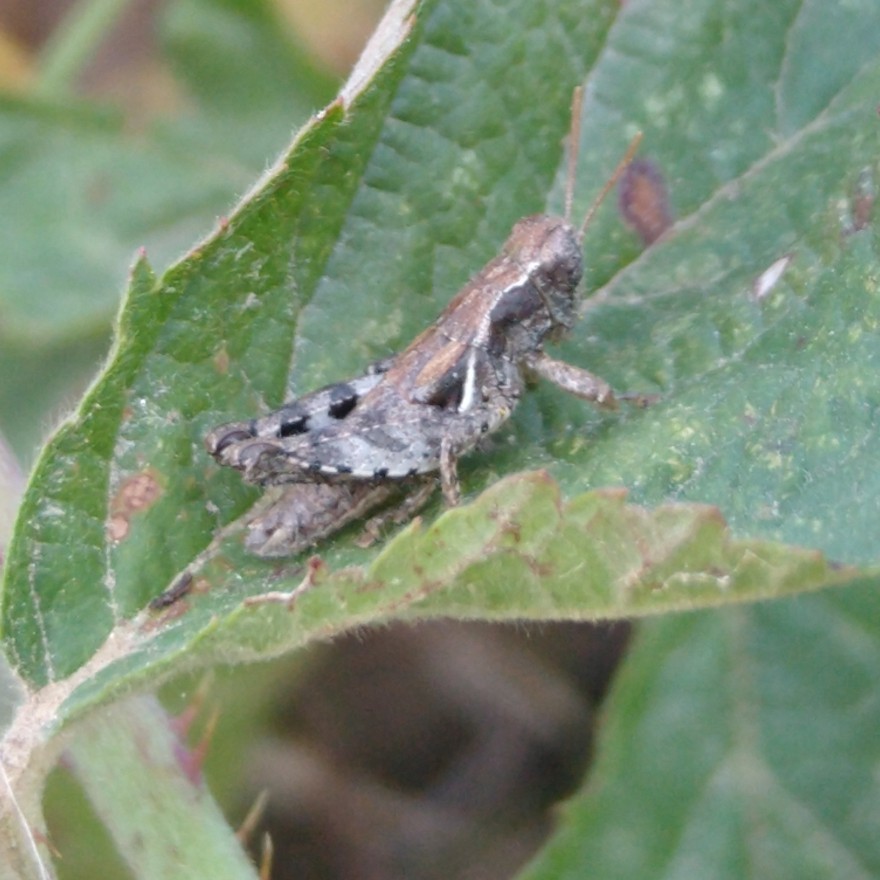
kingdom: Animalia
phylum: Arthropoda
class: Insecta
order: Orthoptera
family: Acrididae
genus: Pezotettix
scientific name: Pezotettix giornae
